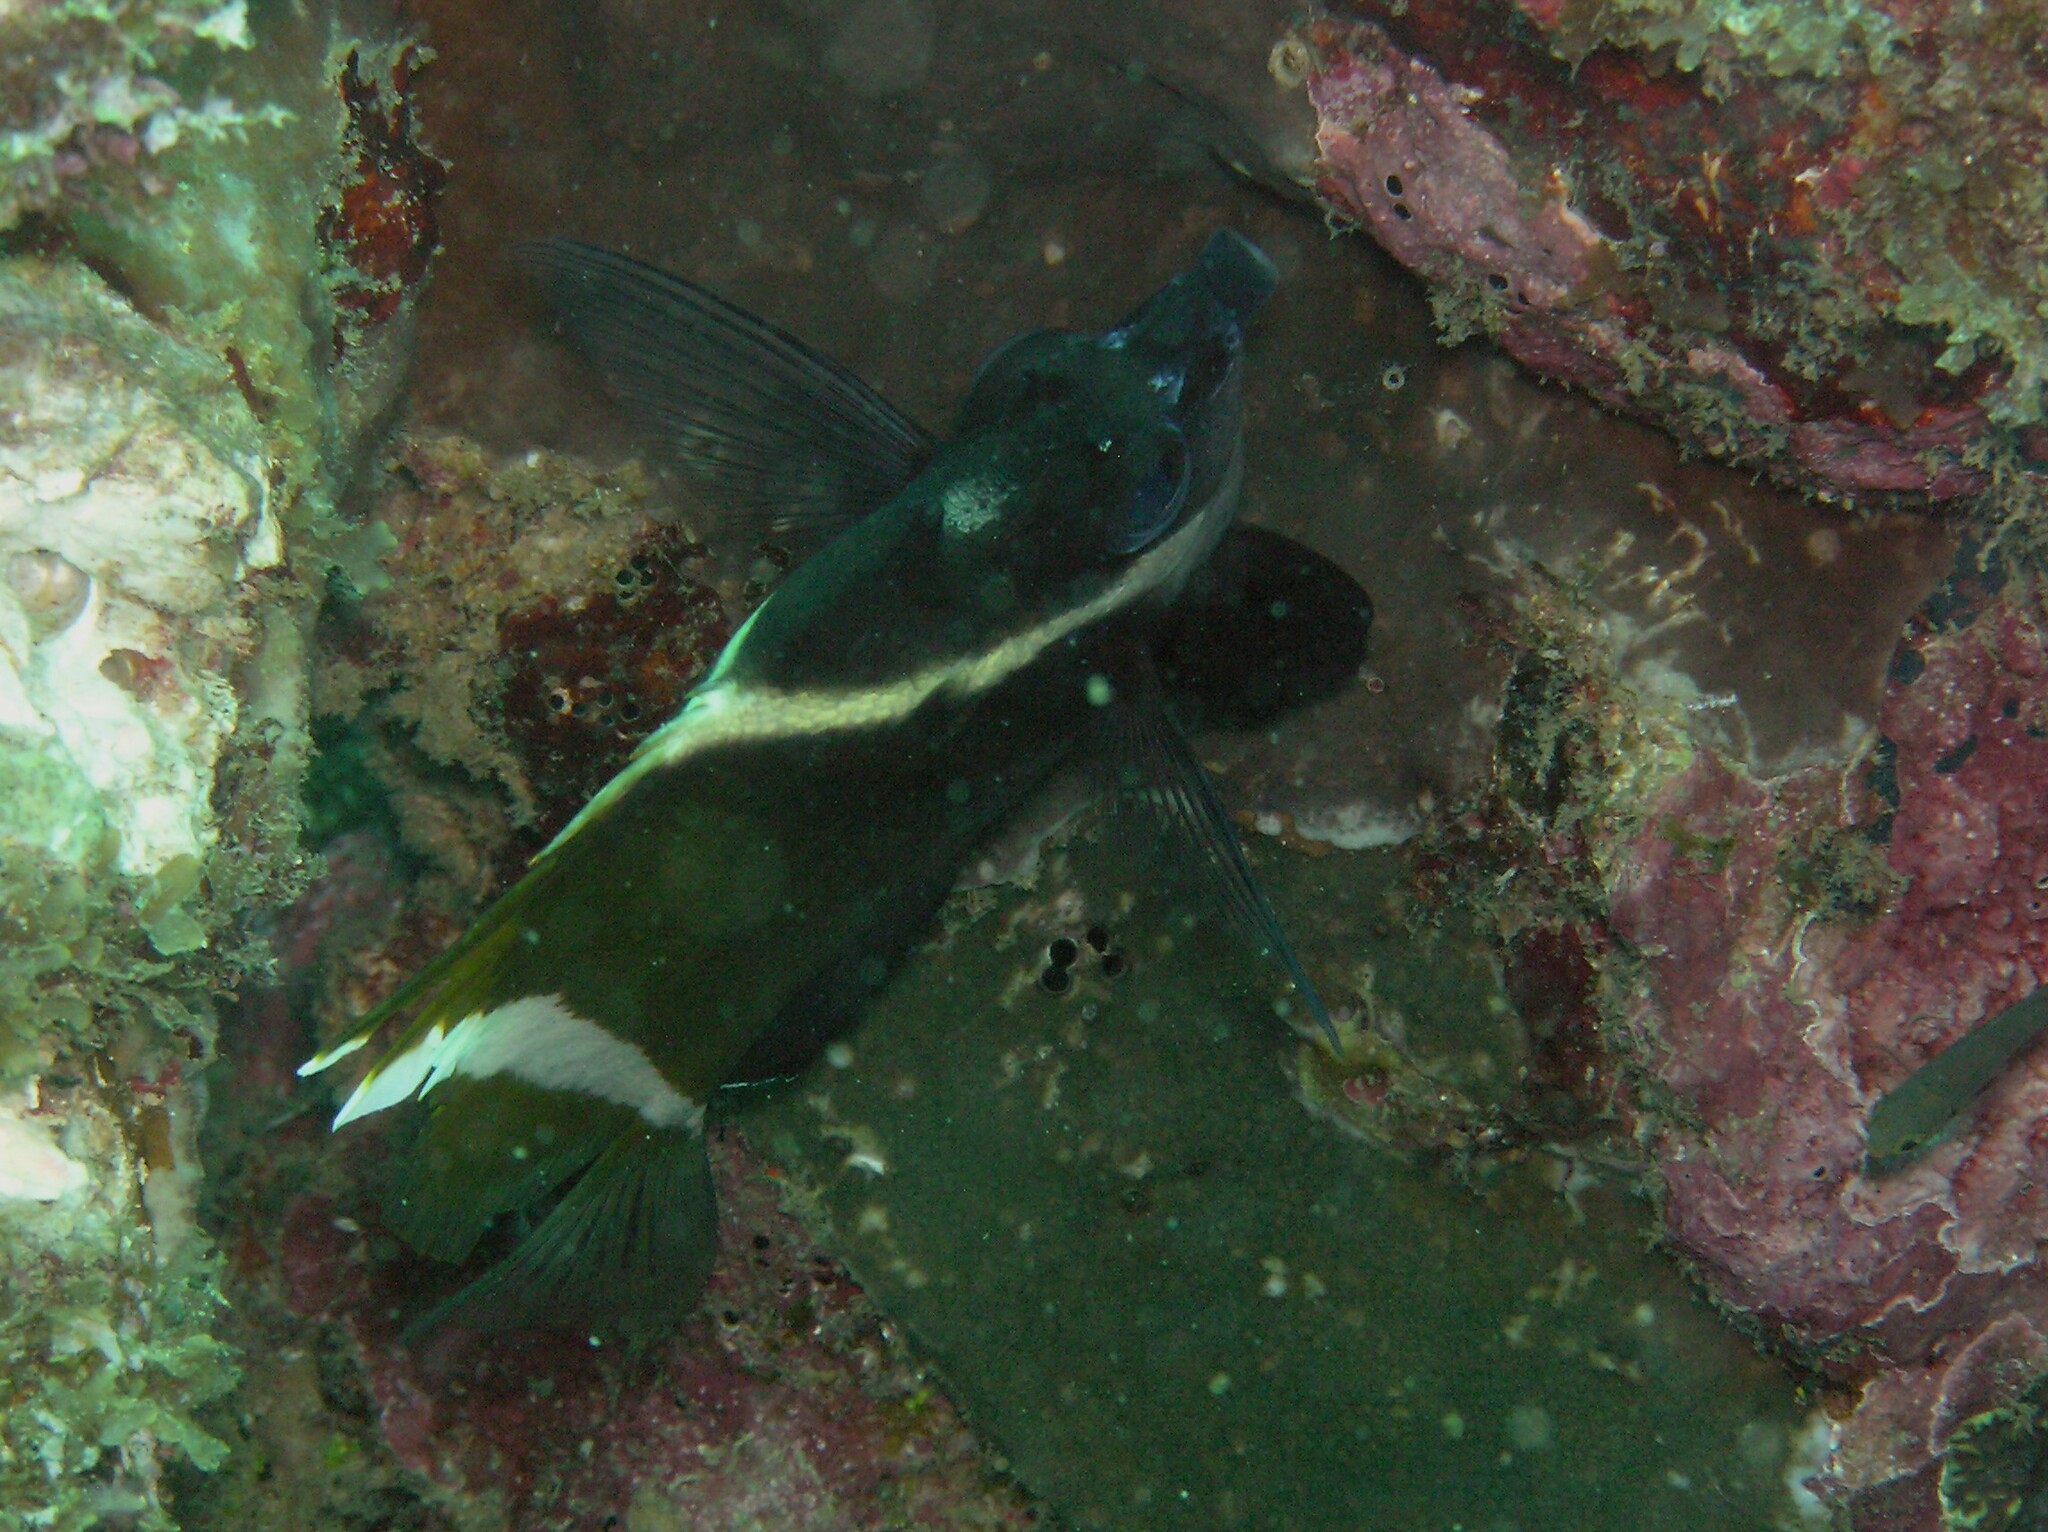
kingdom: Animalia
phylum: Chordata
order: Perciformes
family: Chaetodontidae
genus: Heniochus
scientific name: Heniochus varius
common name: Horned bannerfish
